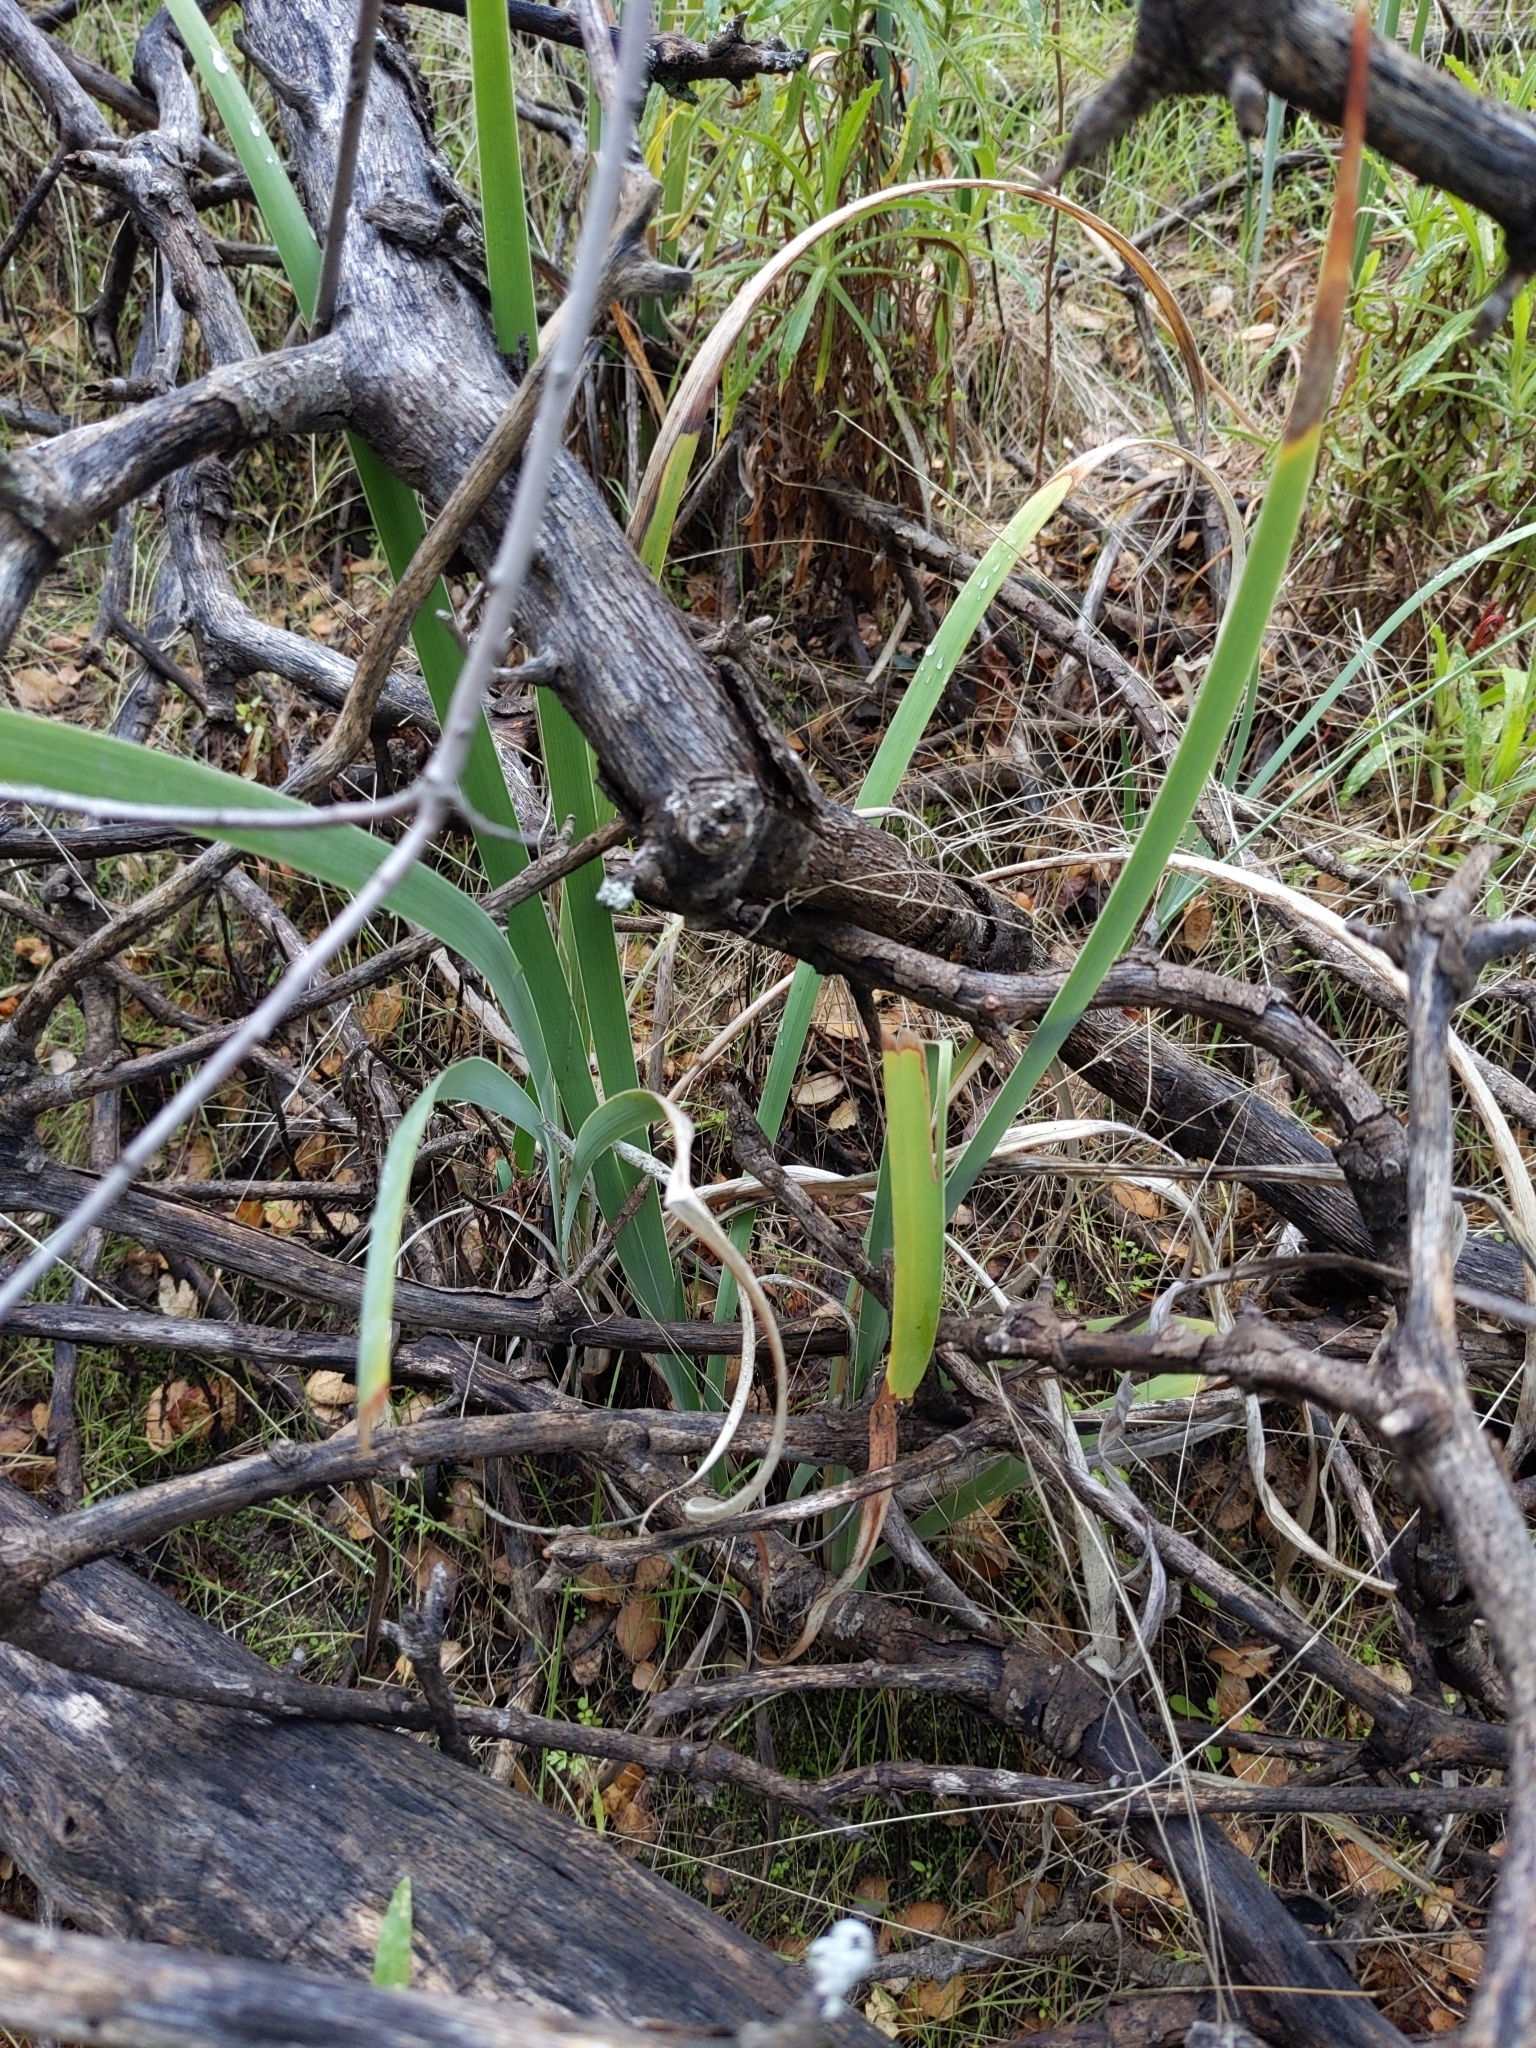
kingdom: Plantae
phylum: Tracheophyta
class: Liliopsida
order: Asparagales
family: Iridaceae
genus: Iris
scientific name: Iris munzii
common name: Munz's iris
